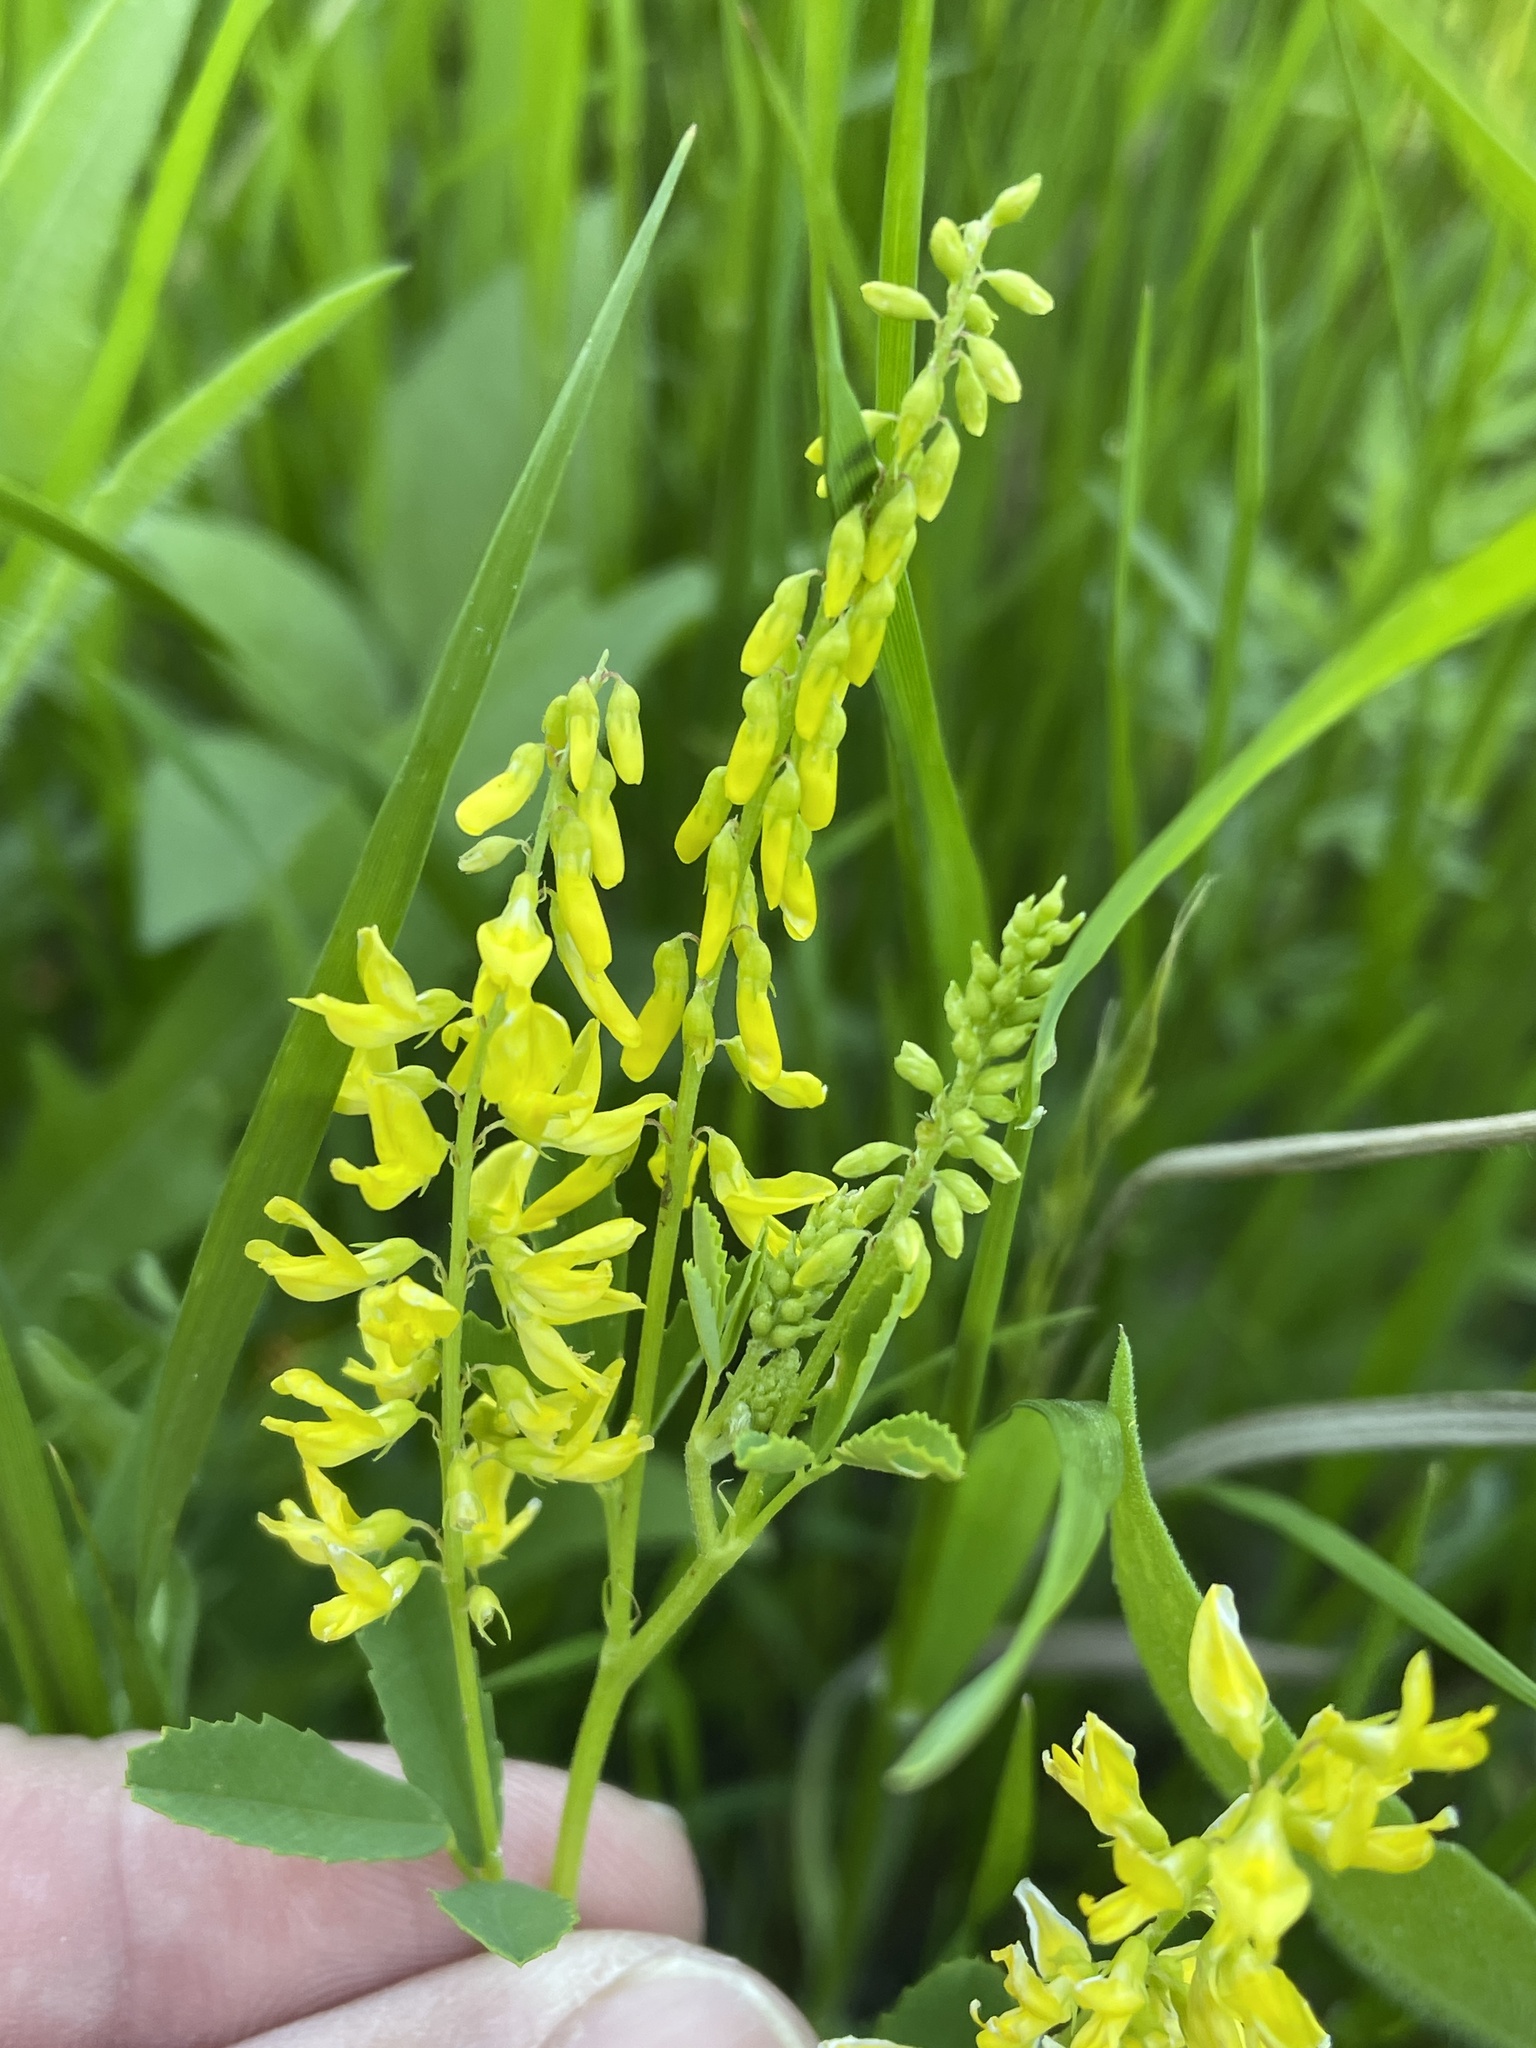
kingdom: Plantae
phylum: Tracheophyta
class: Magnoliopsida
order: Fabales
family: Fabaceae
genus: Melilotus
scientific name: Melilotus officinalis
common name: Sweetclover
